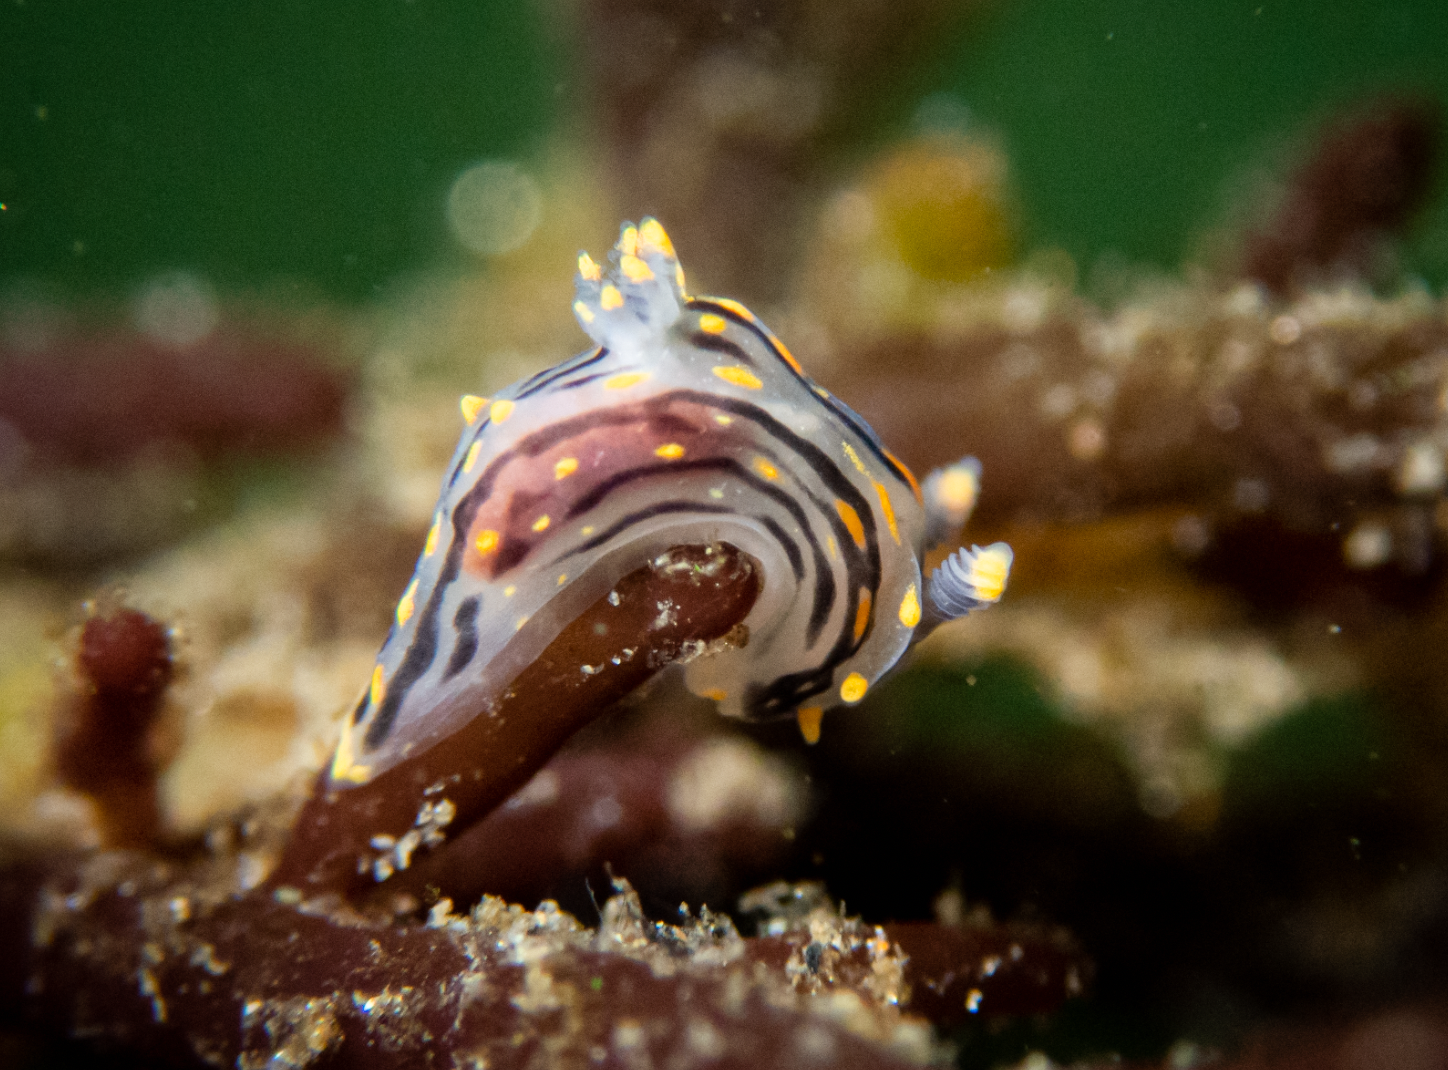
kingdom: Animalia
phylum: Mollusca
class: Gastropoda
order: Nudibranchia
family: Polyceridae
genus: Polycera
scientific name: Polycera atra
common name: Orange-spike polycera
